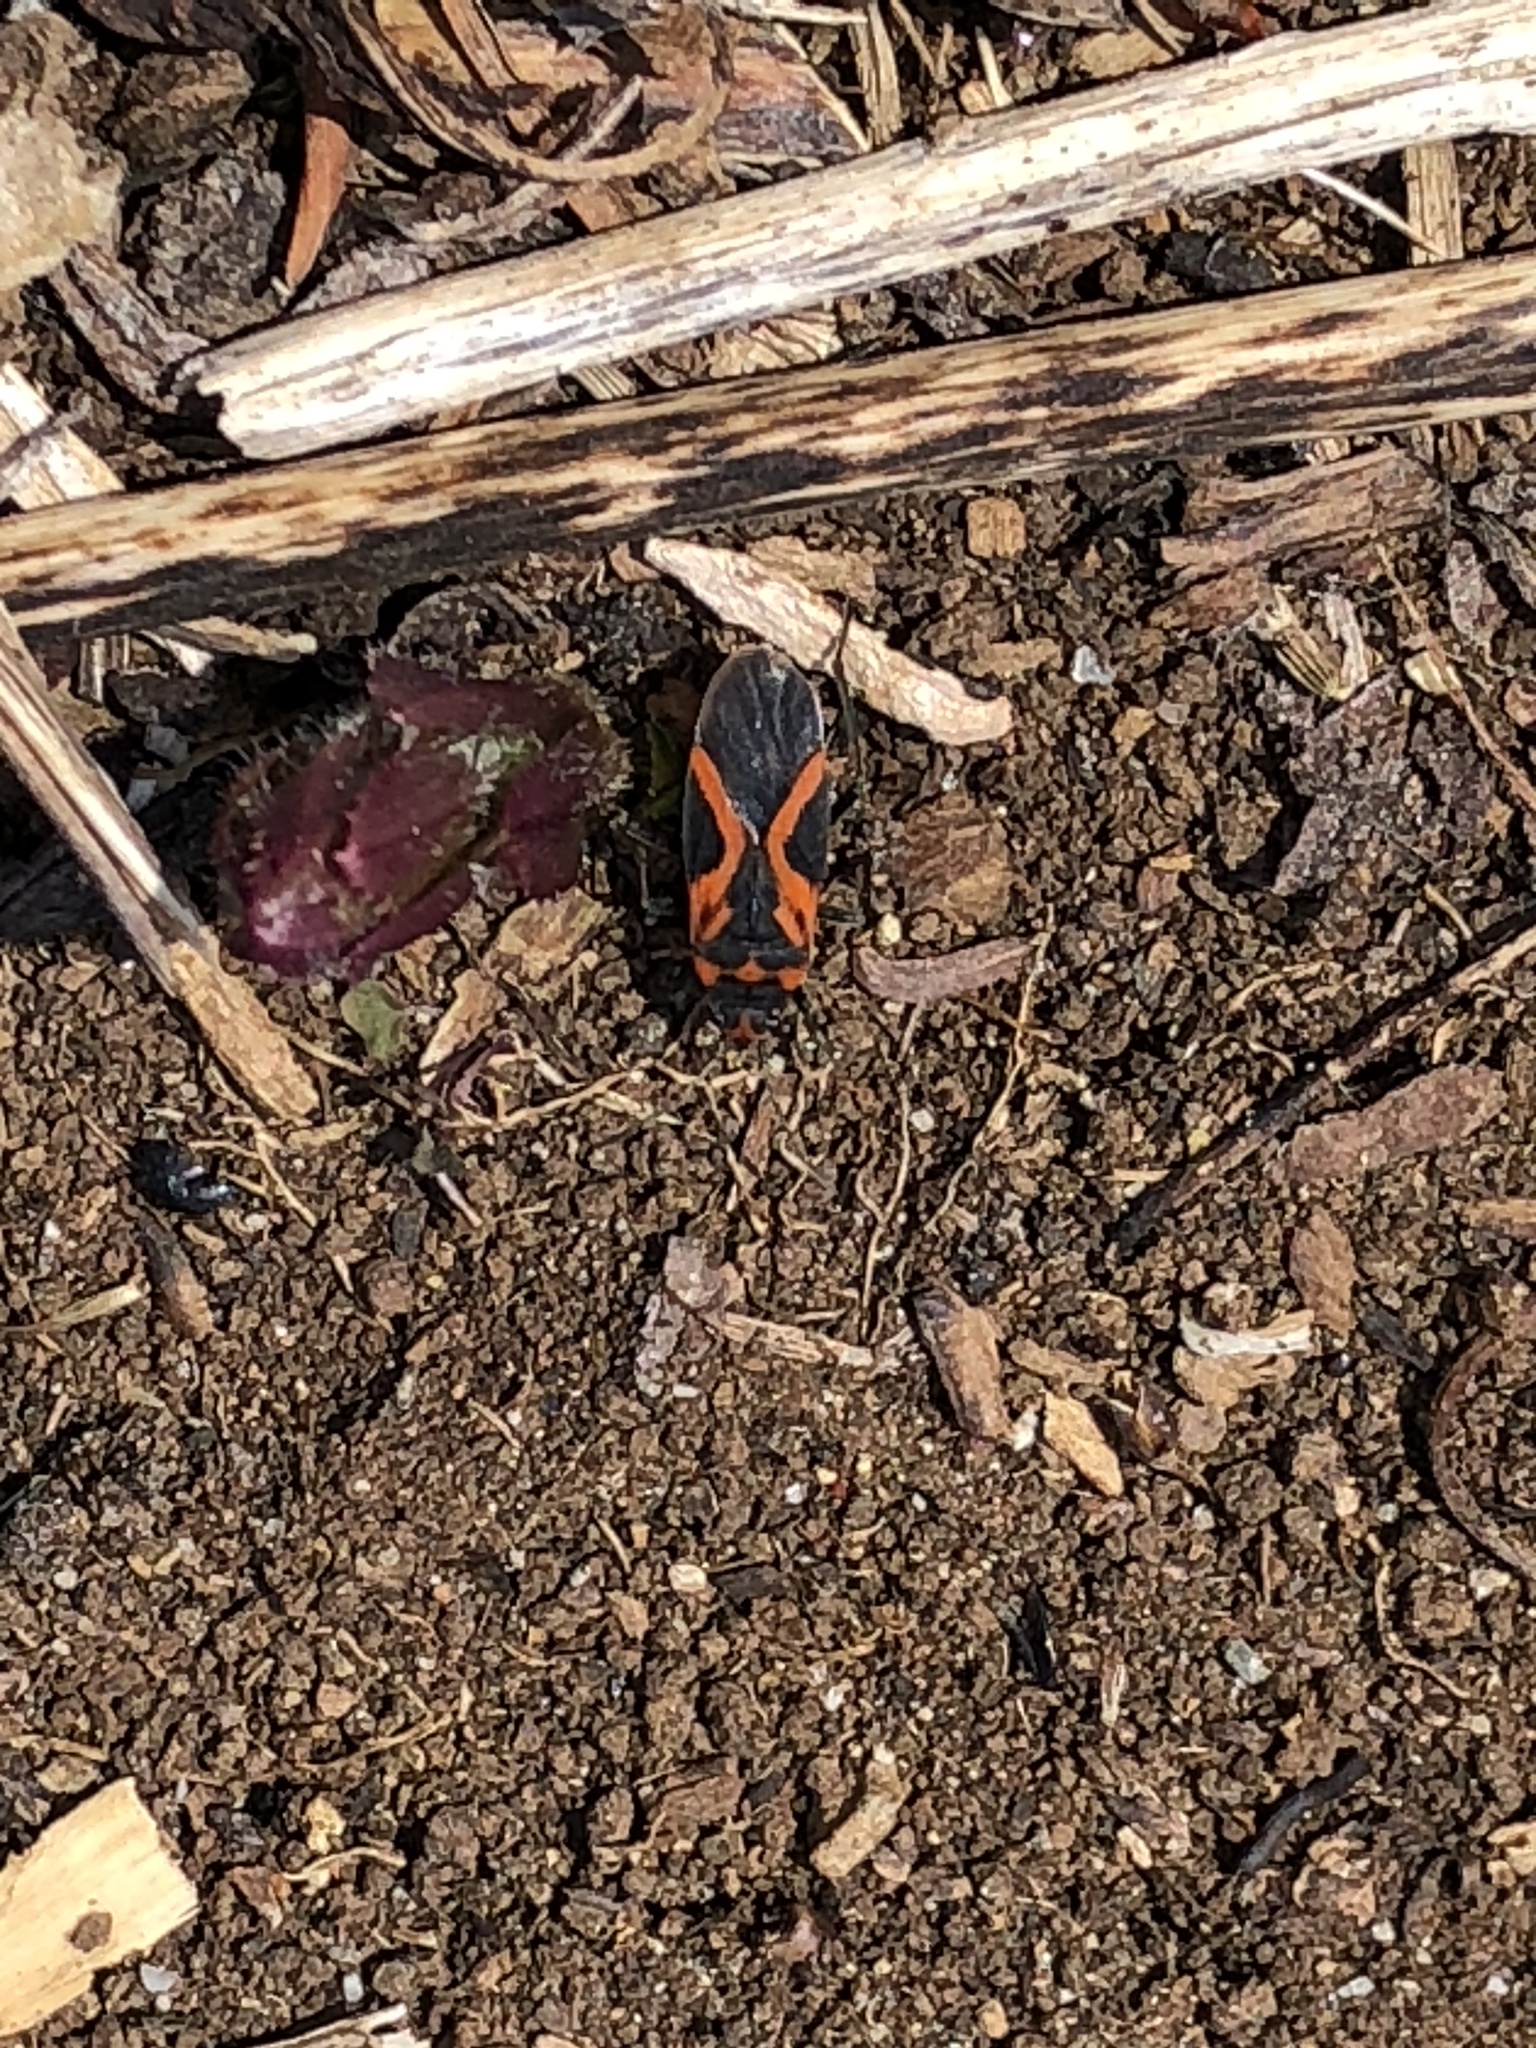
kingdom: Animalia
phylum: Arthropoda
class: Insecta
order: Hemiptera
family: Lygaeidae
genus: Lygaeus
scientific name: Lygaeus turcicus
